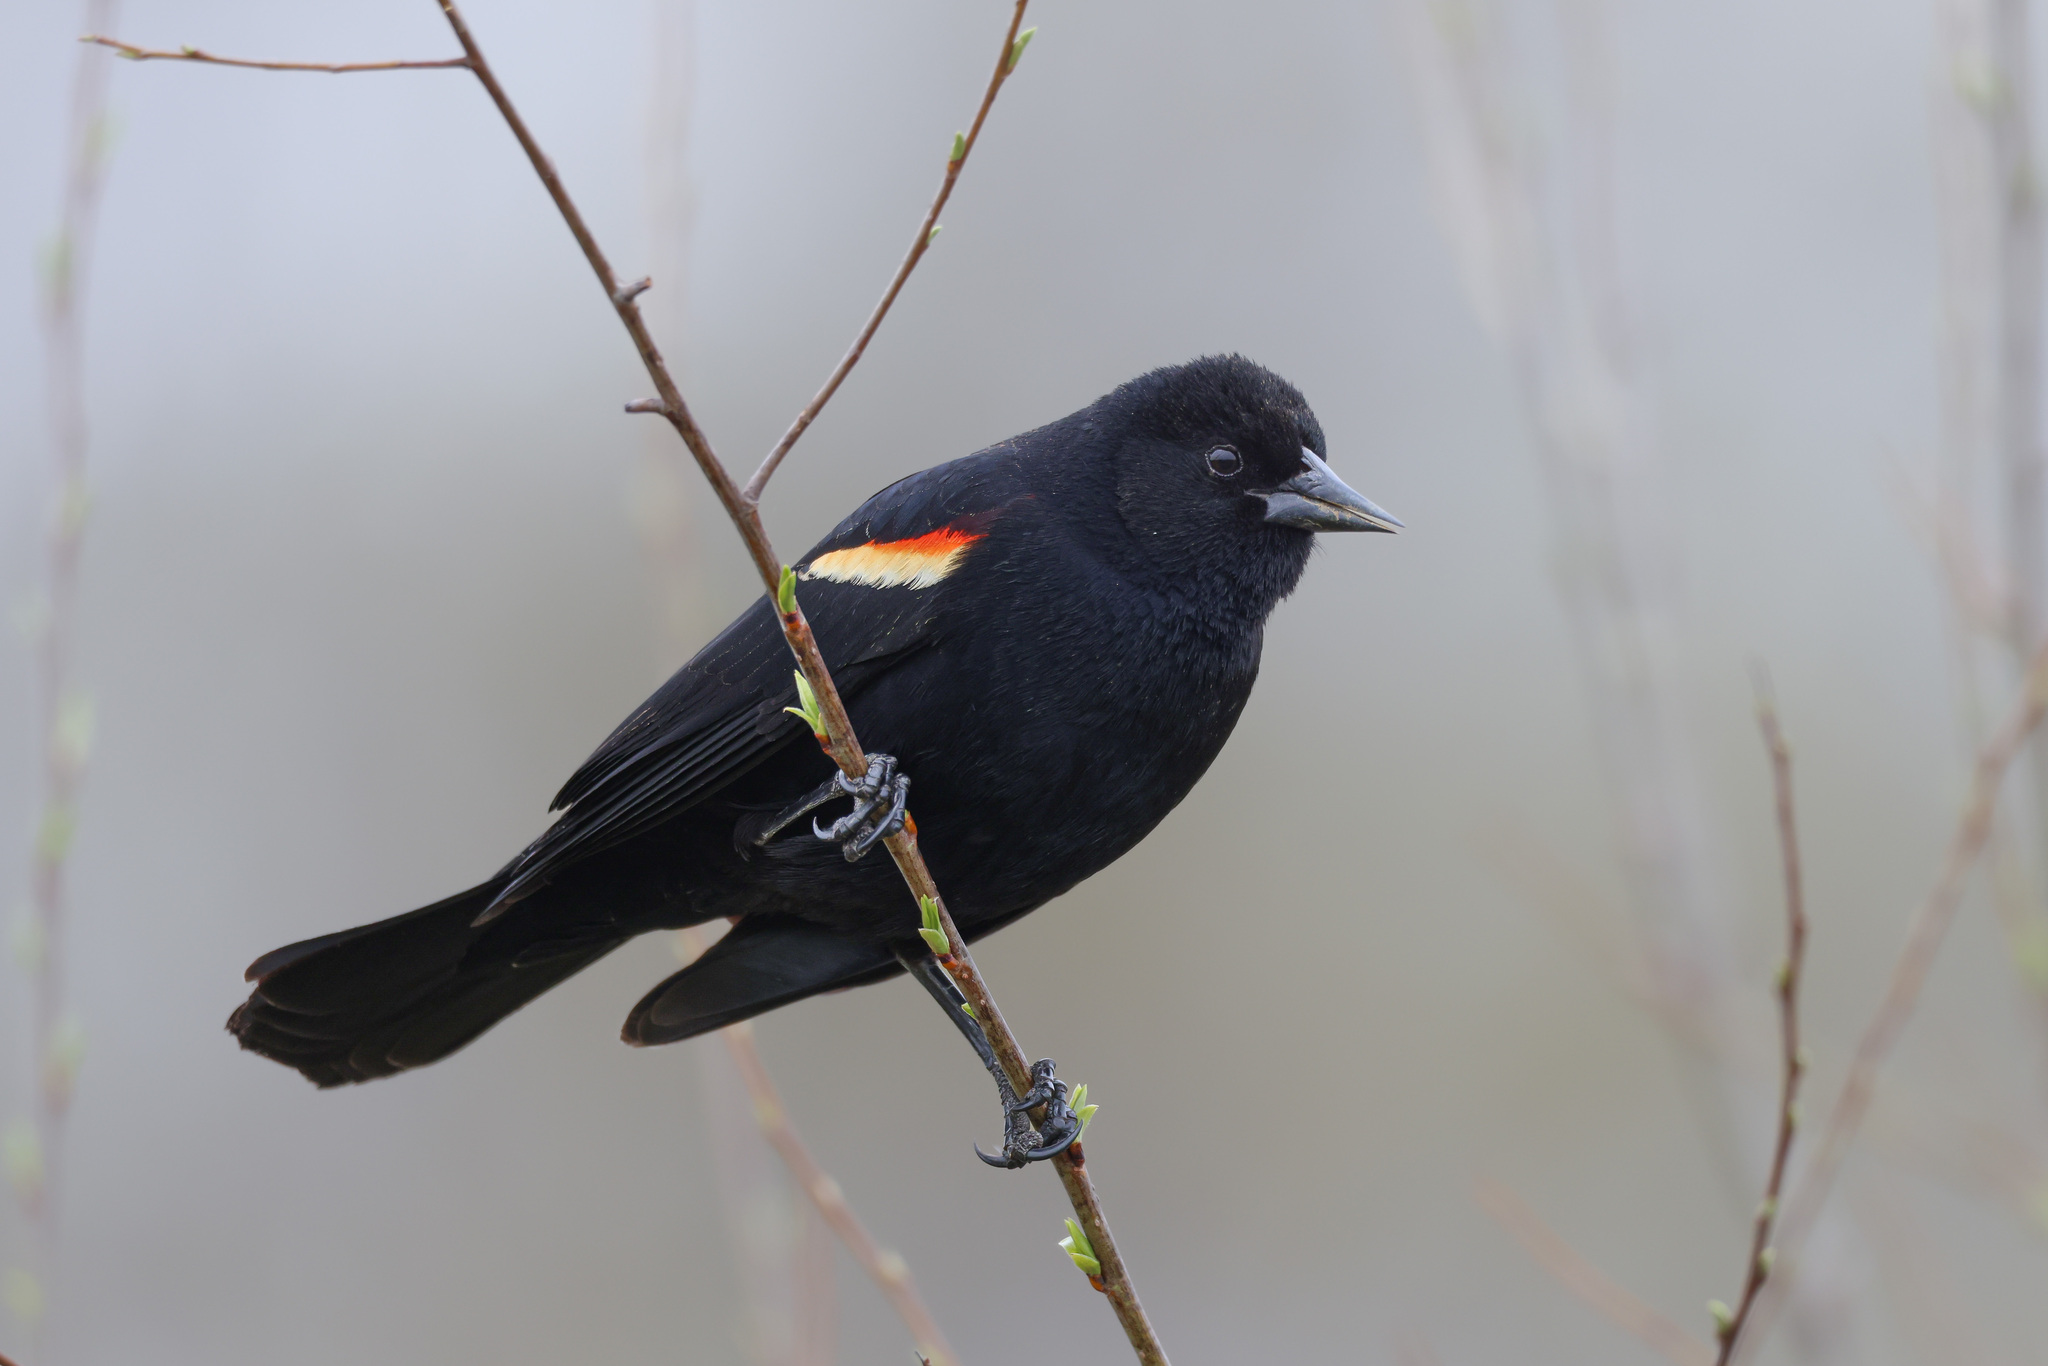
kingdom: Animalia
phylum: Chordata
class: Aves
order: Passeriformes
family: Icteridae
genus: Agelaius
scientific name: Agelaius phoeniceus
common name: Red-winged blackbird
